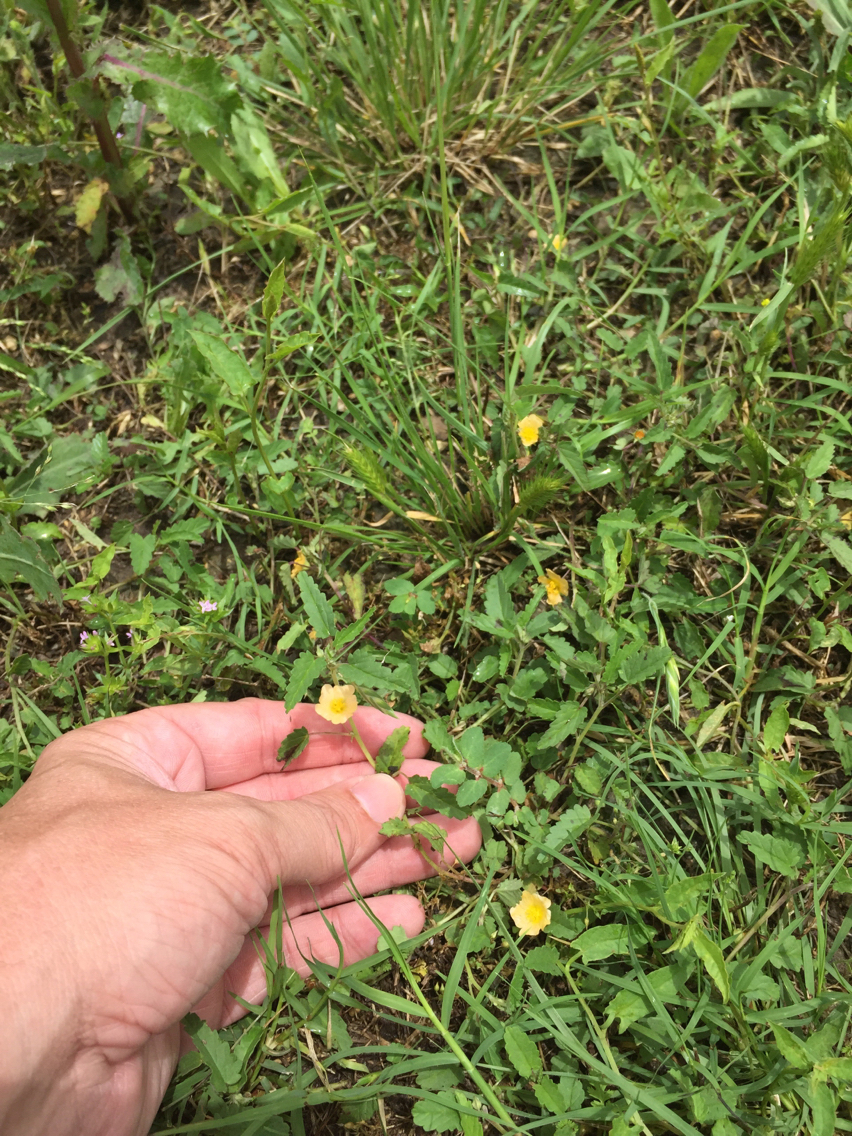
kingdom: Plantae
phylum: Tracheophyta
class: Magnoliopsida
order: Malvales
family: Malvaceae
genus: Sida
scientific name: Sida abutilifolia
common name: Spreading fanpetals
